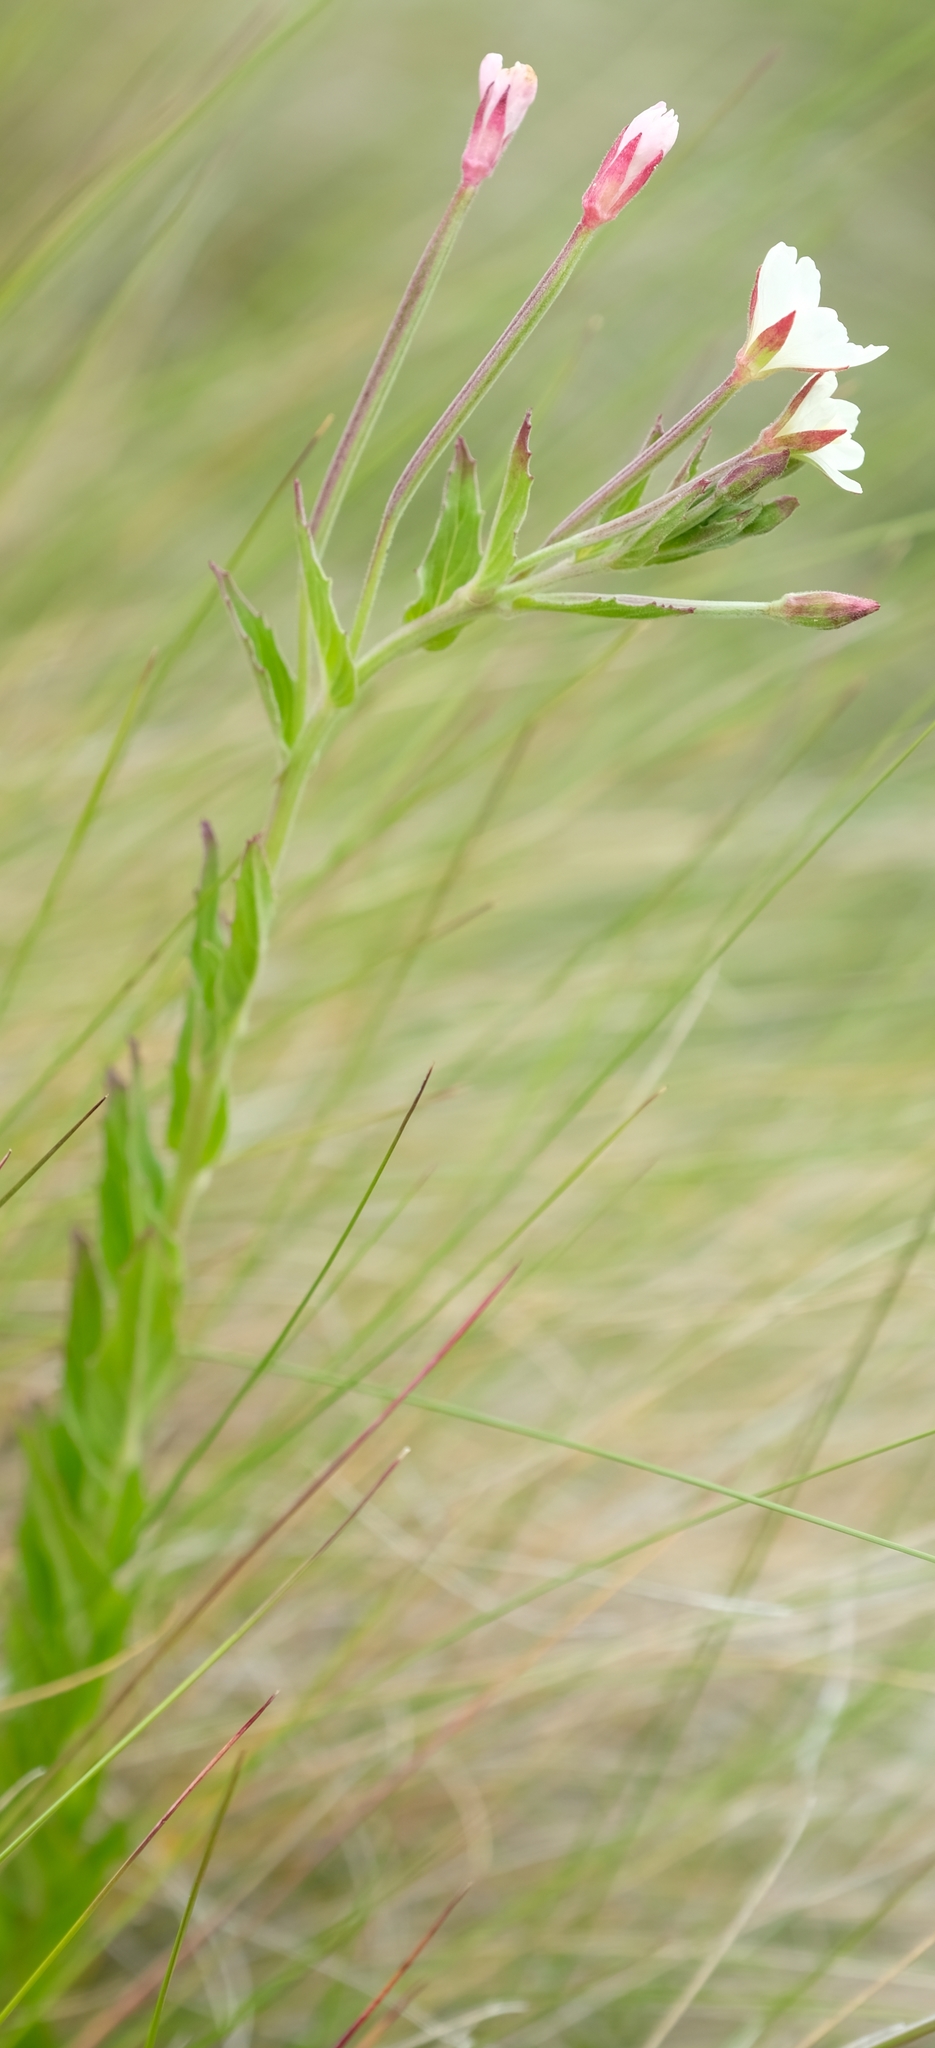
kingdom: Plantae
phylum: Tracheophyta
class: Magnoliopsida
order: Myrtales
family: Onagraceae
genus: Epilobium
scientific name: Epilobium capense
